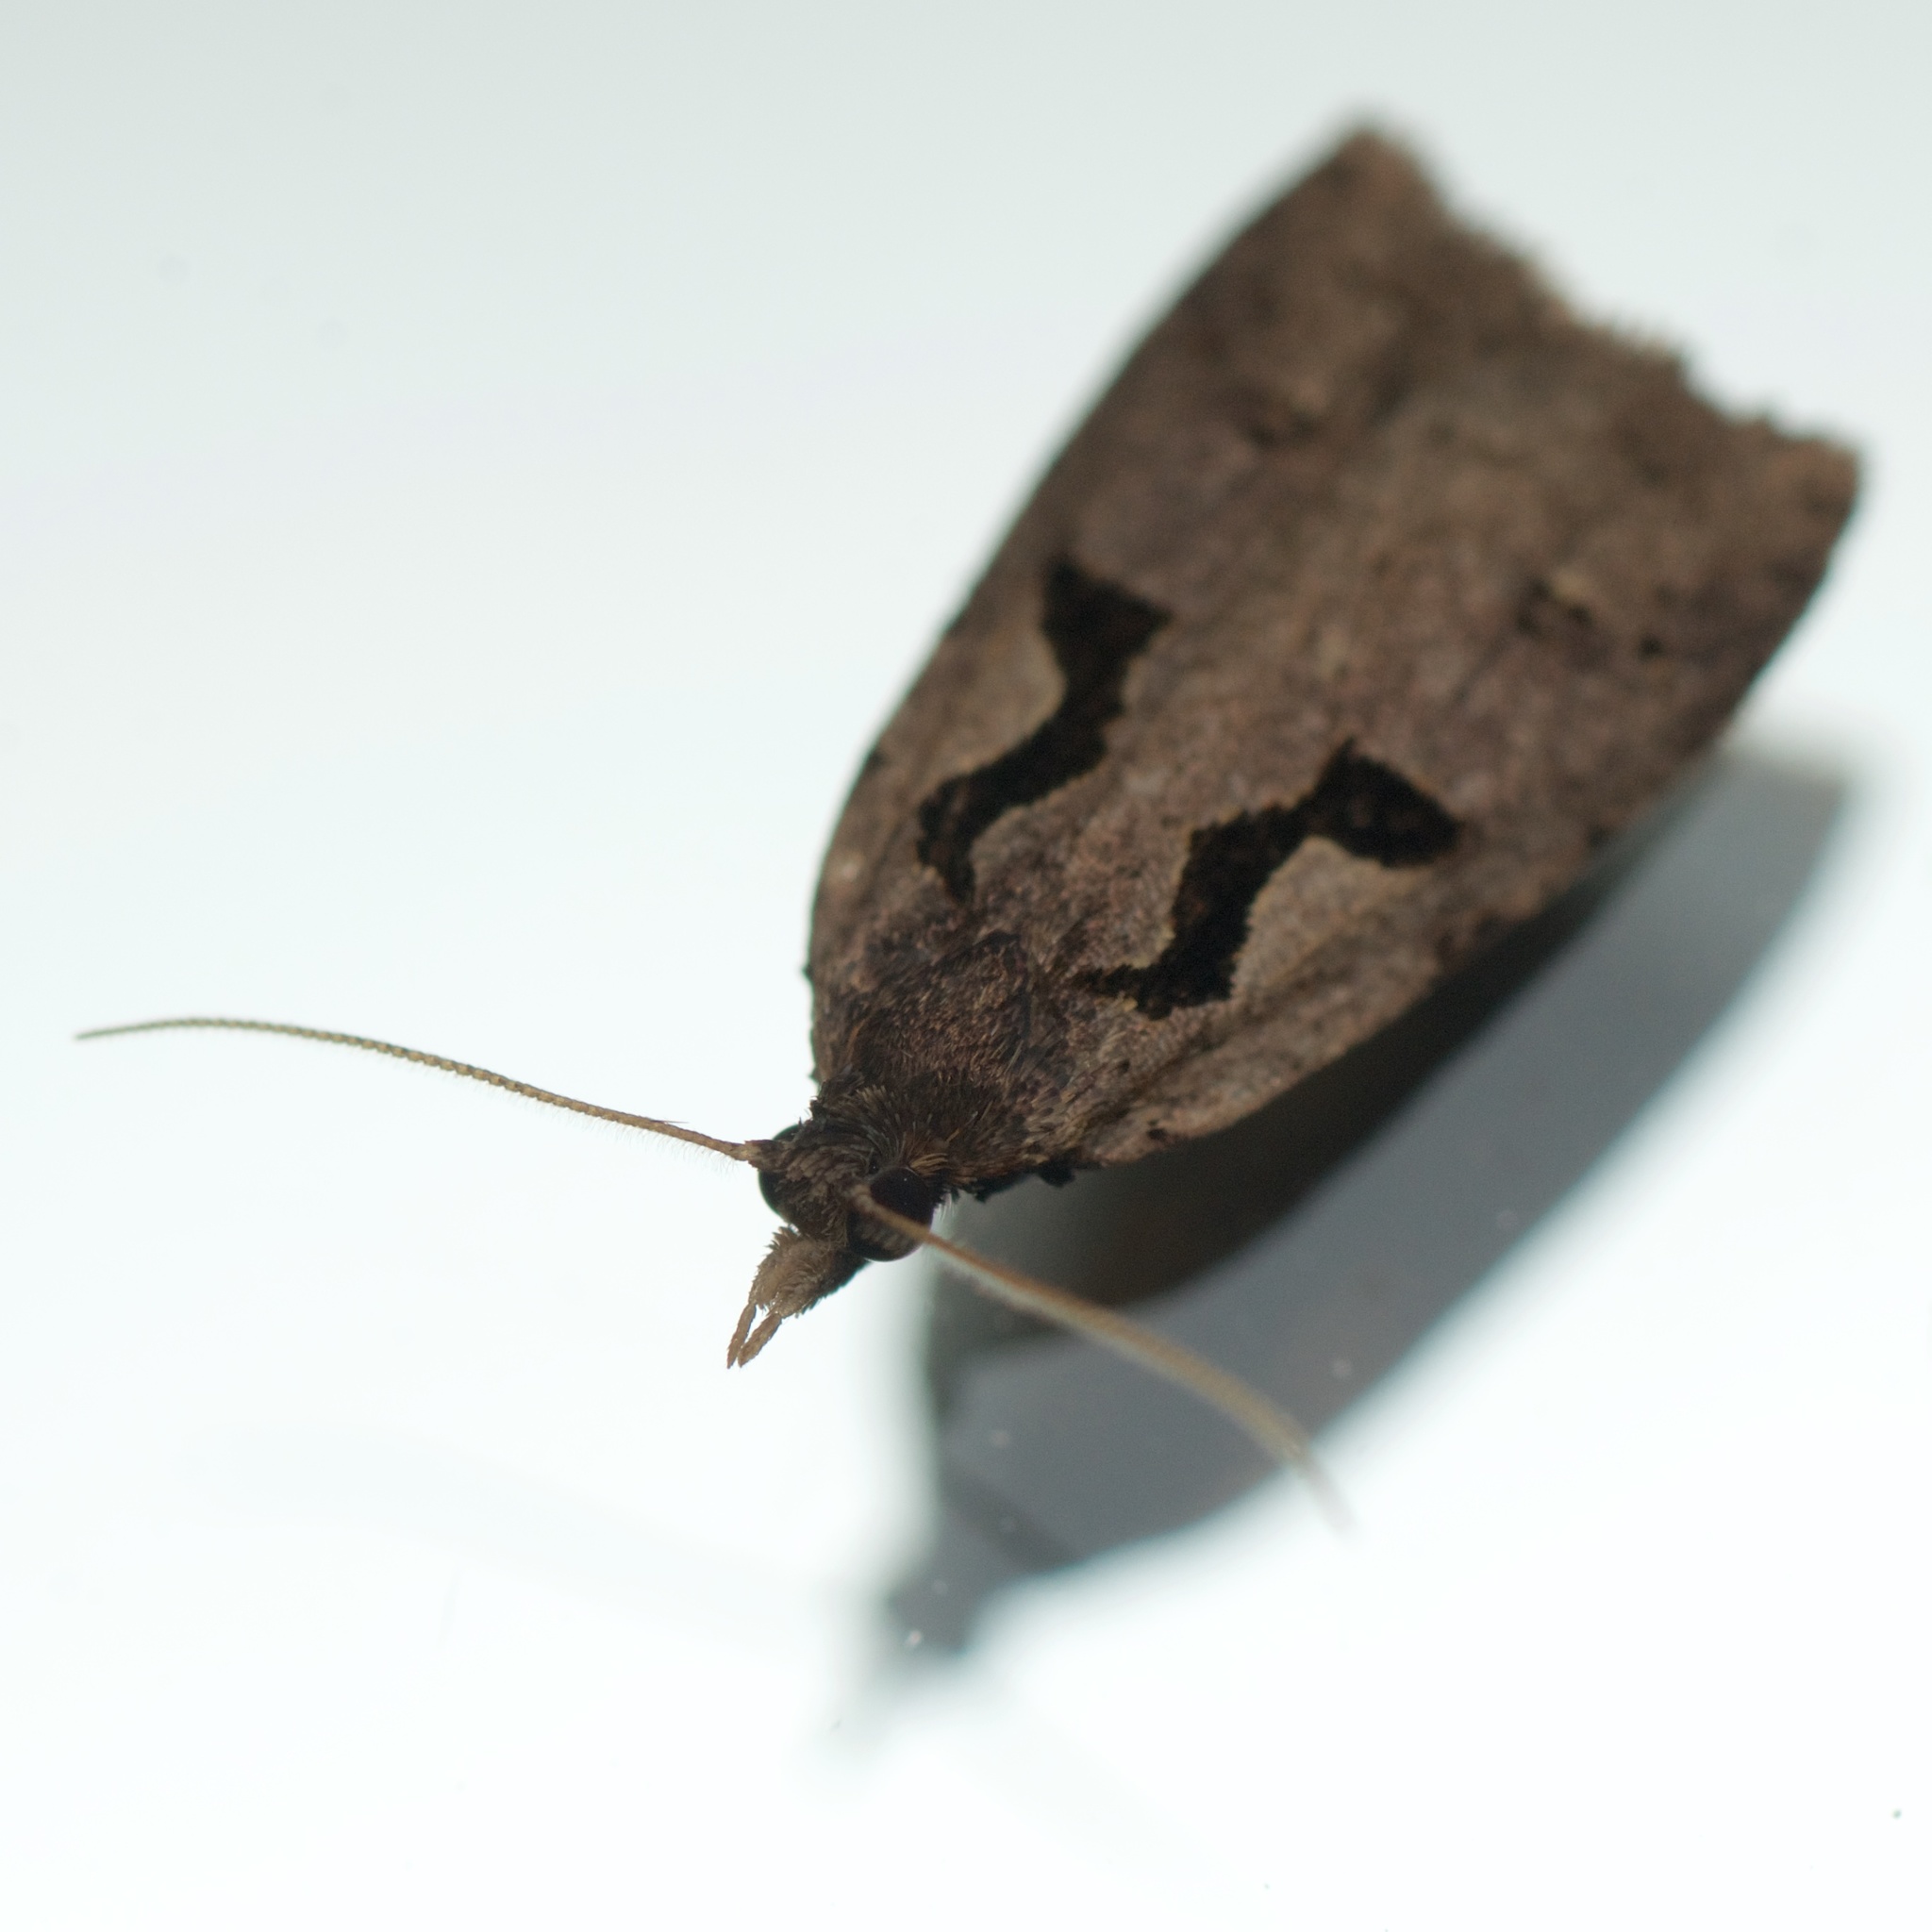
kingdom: Animalia
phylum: Arthropoda
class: Insecta
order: Lepidoptera
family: Tortricidae
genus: Cnephasia
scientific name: Cnephasia jactatana
